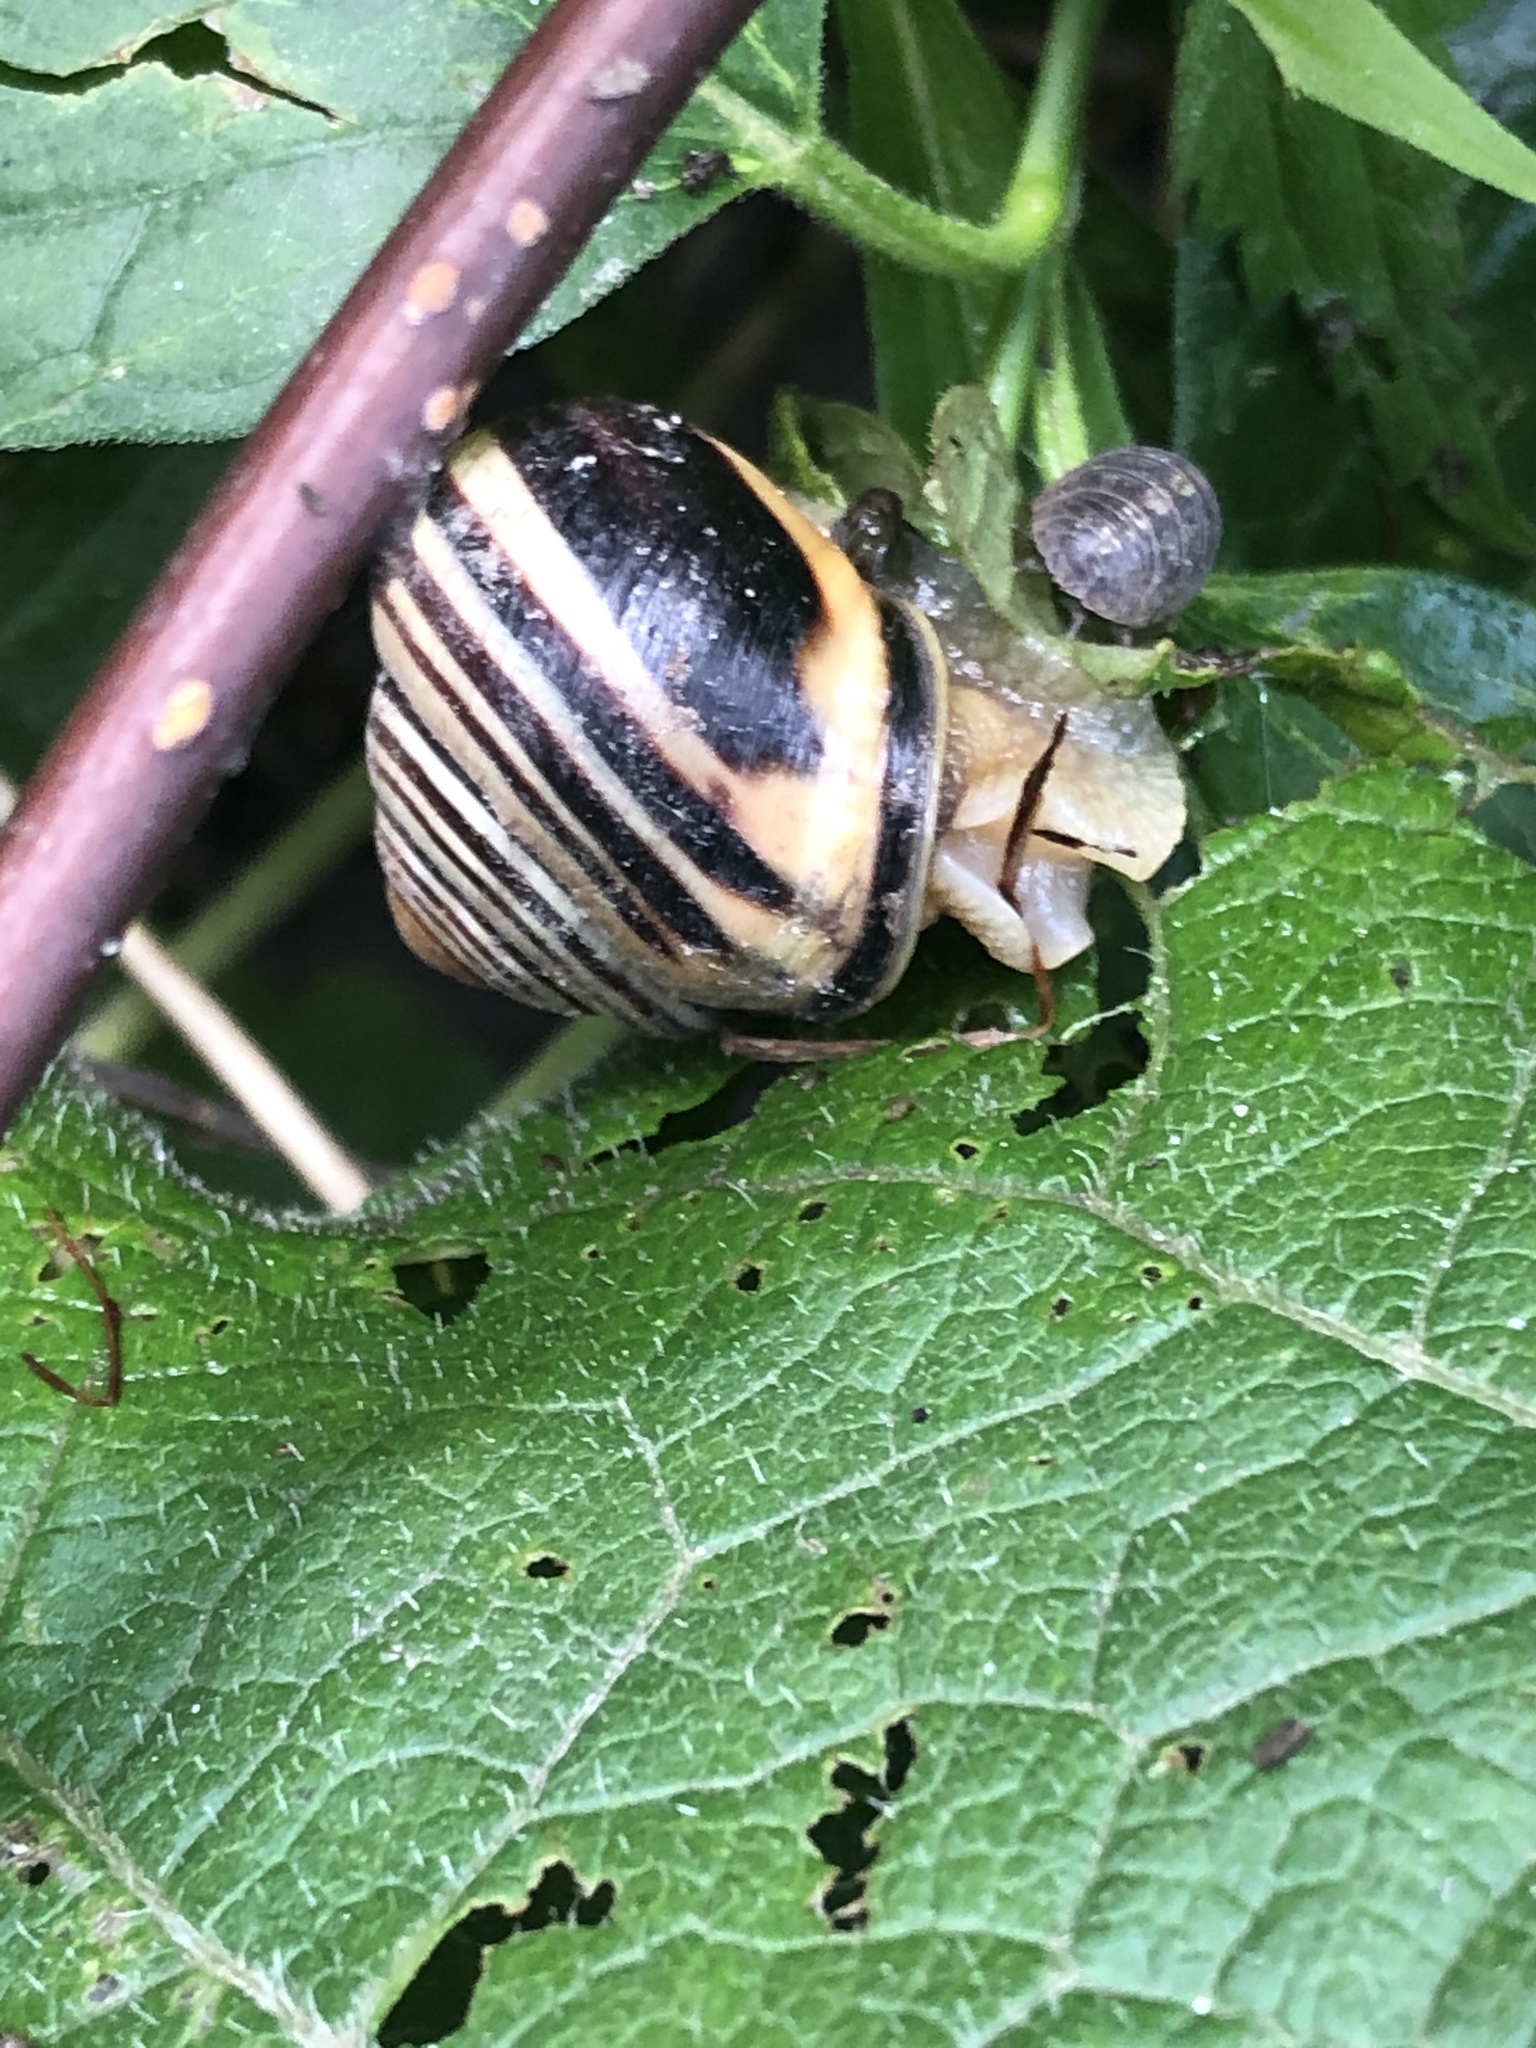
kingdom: Animalia
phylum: Mollusca
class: Gastropoda
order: Stylommatophora
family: Helicidae
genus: Cepaea
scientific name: Cepaea nemoralis
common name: Grovesnail
